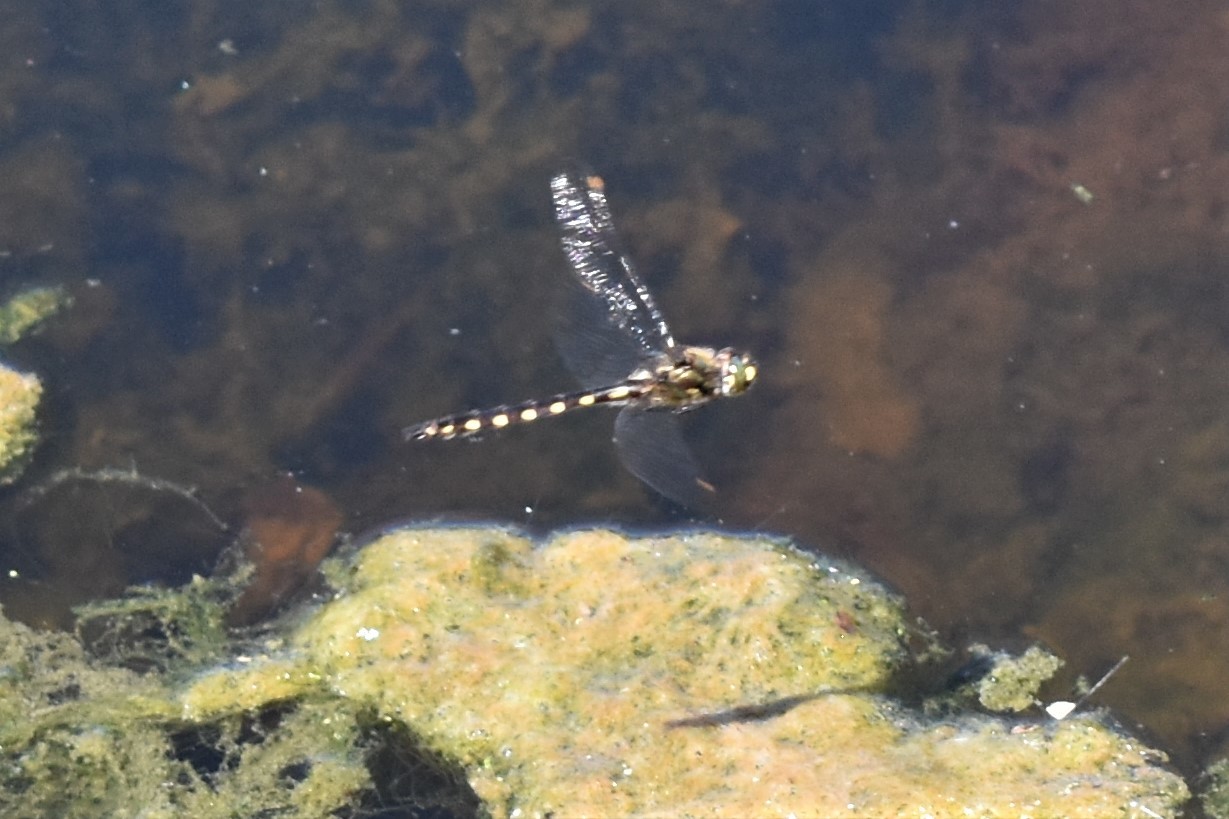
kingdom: Animalia
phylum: Arthropoda
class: Insecta
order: Odonata
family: Corduliidae
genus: Procordulia
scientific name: Procordulia grayi
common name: Yellow spotted dragonfly
